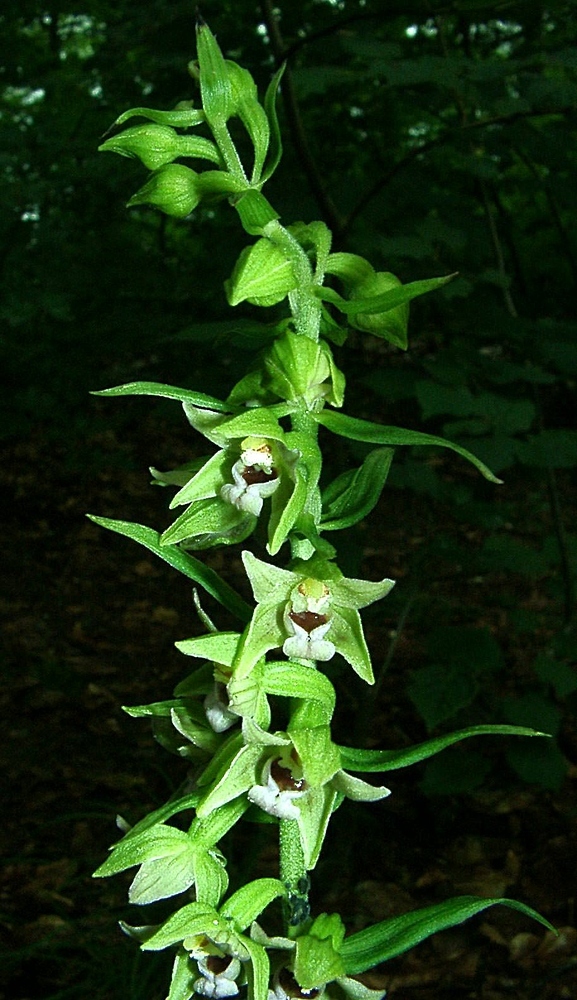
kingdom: Plantae
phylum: Tracheophyta
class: Liliopsida
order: Asparagales
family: Orchidaceae
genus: Epipactis
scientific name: Epipactis leptochila
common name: Narrow-lipped helleborine
